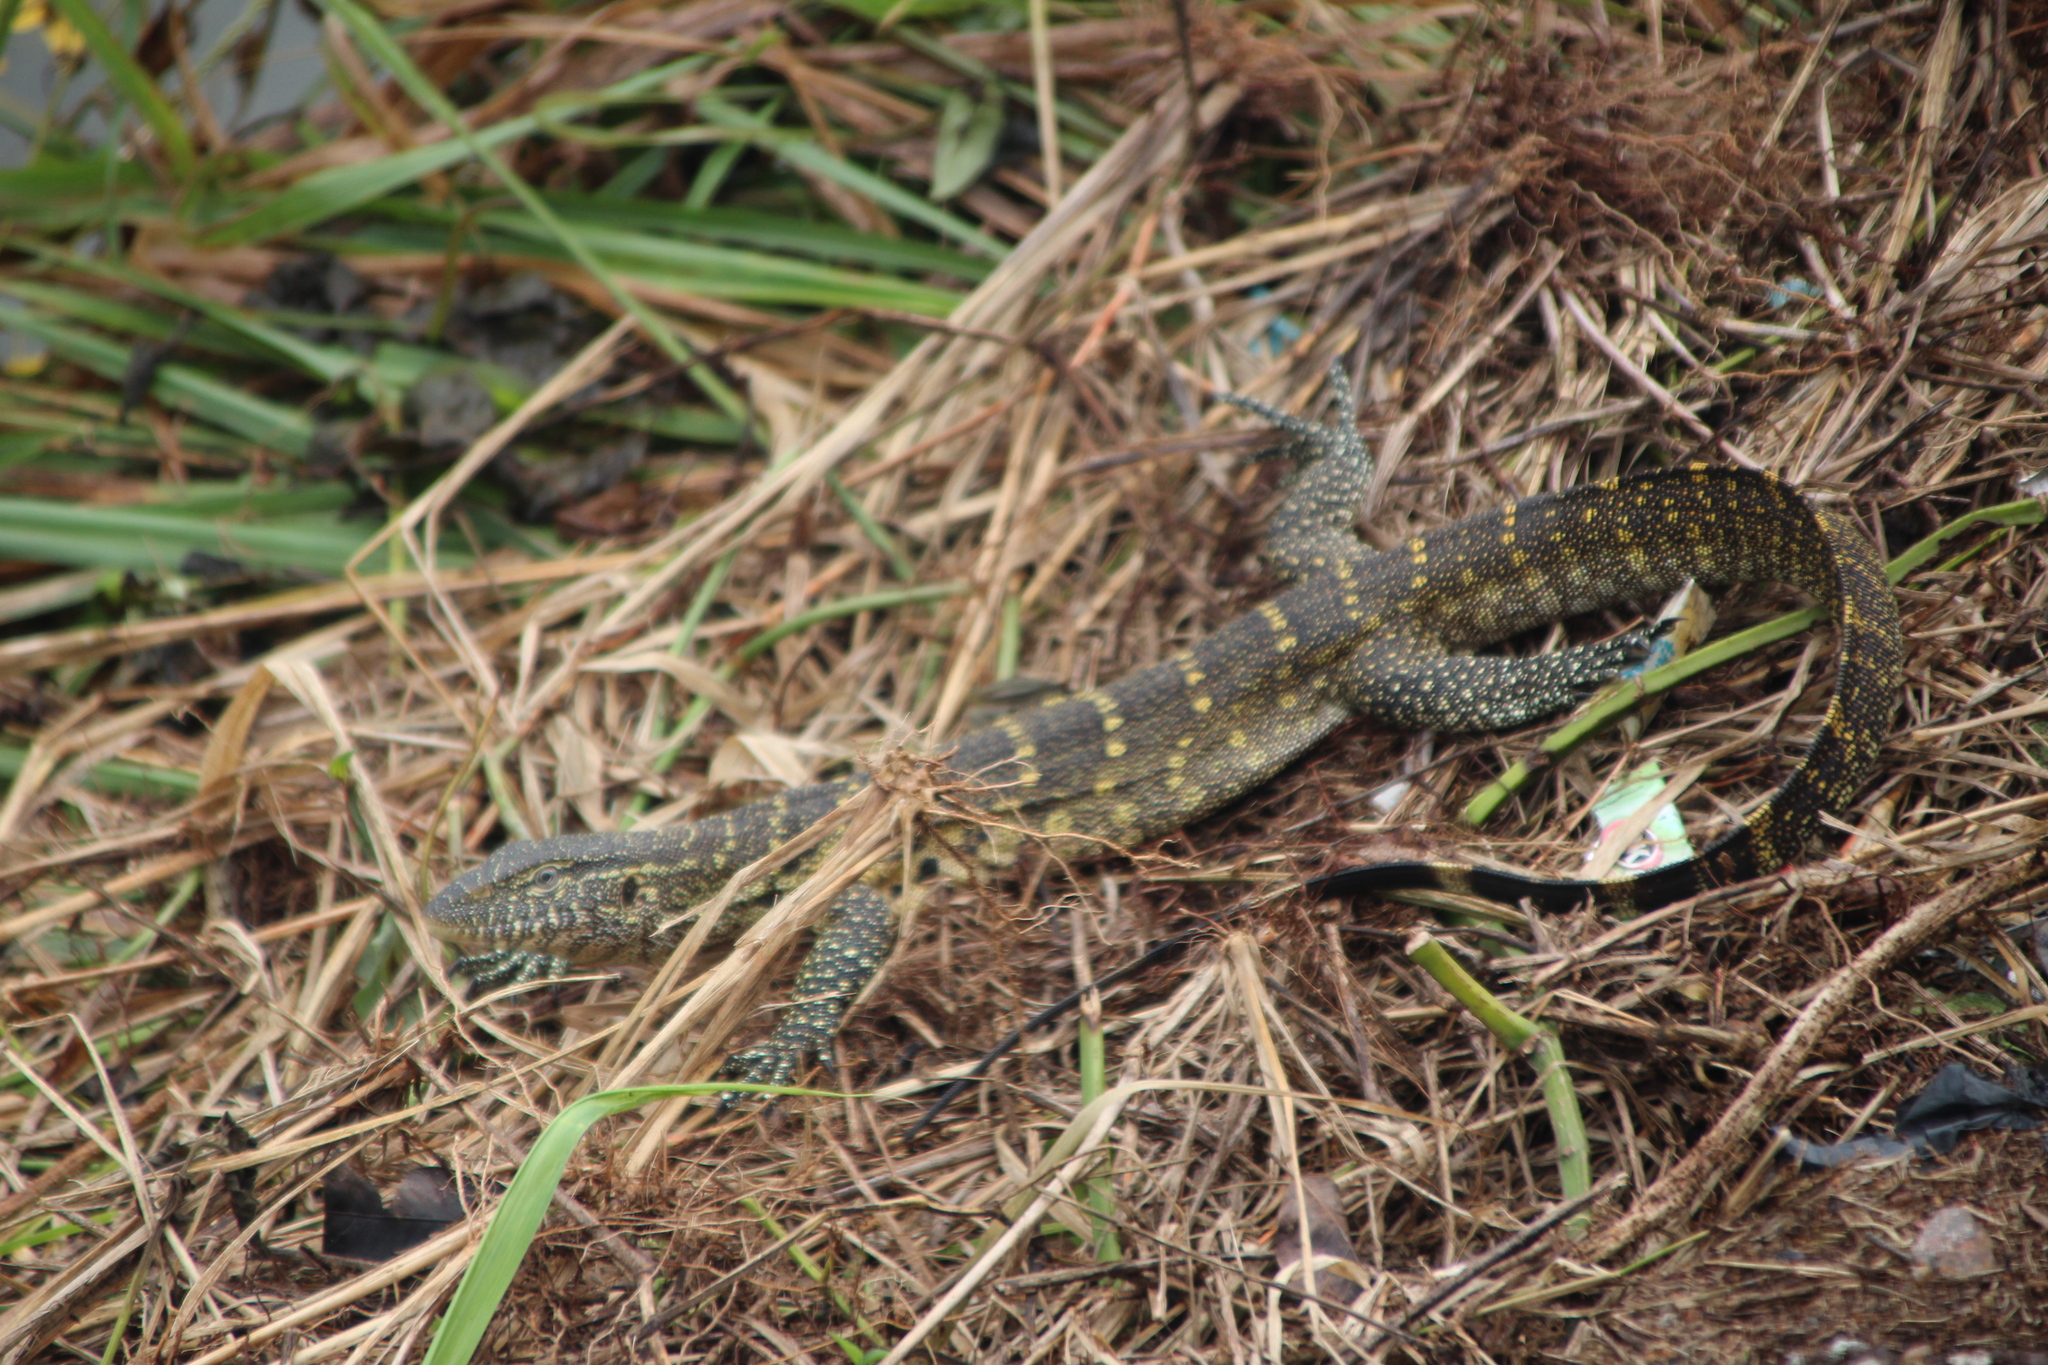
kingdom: Animalia
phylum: Chordata
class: Squamata
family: Varanidae
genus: Varanus
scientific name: Varanus niloticus
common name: Nile monitor
